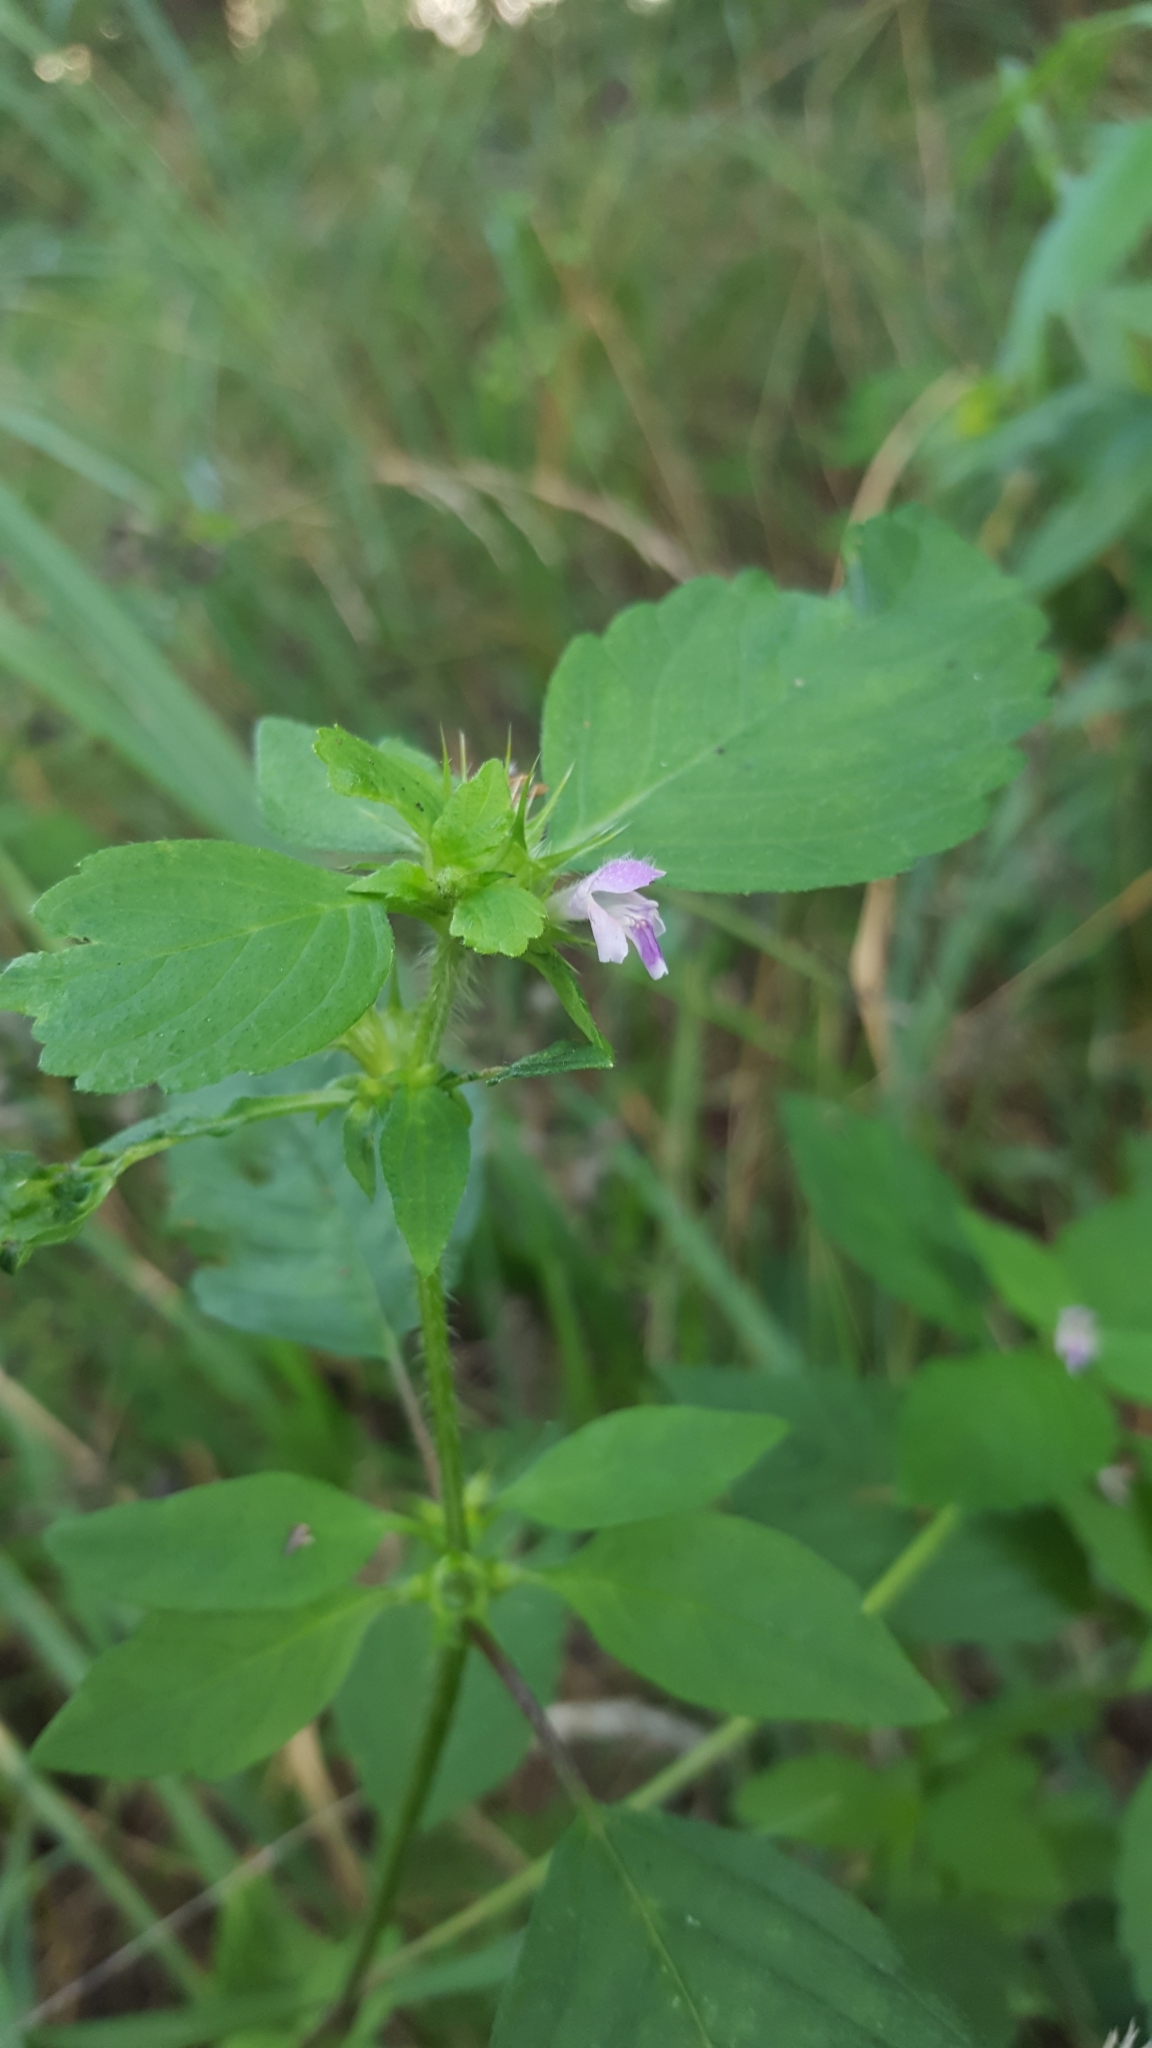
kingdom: Plantae
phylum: Tracheophyta
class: Magnoliopsida
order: Lamiales
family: Lamiaceae
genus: Galeopsis
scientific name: Galeopsis bifida
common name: Bifid hemp-nettle
